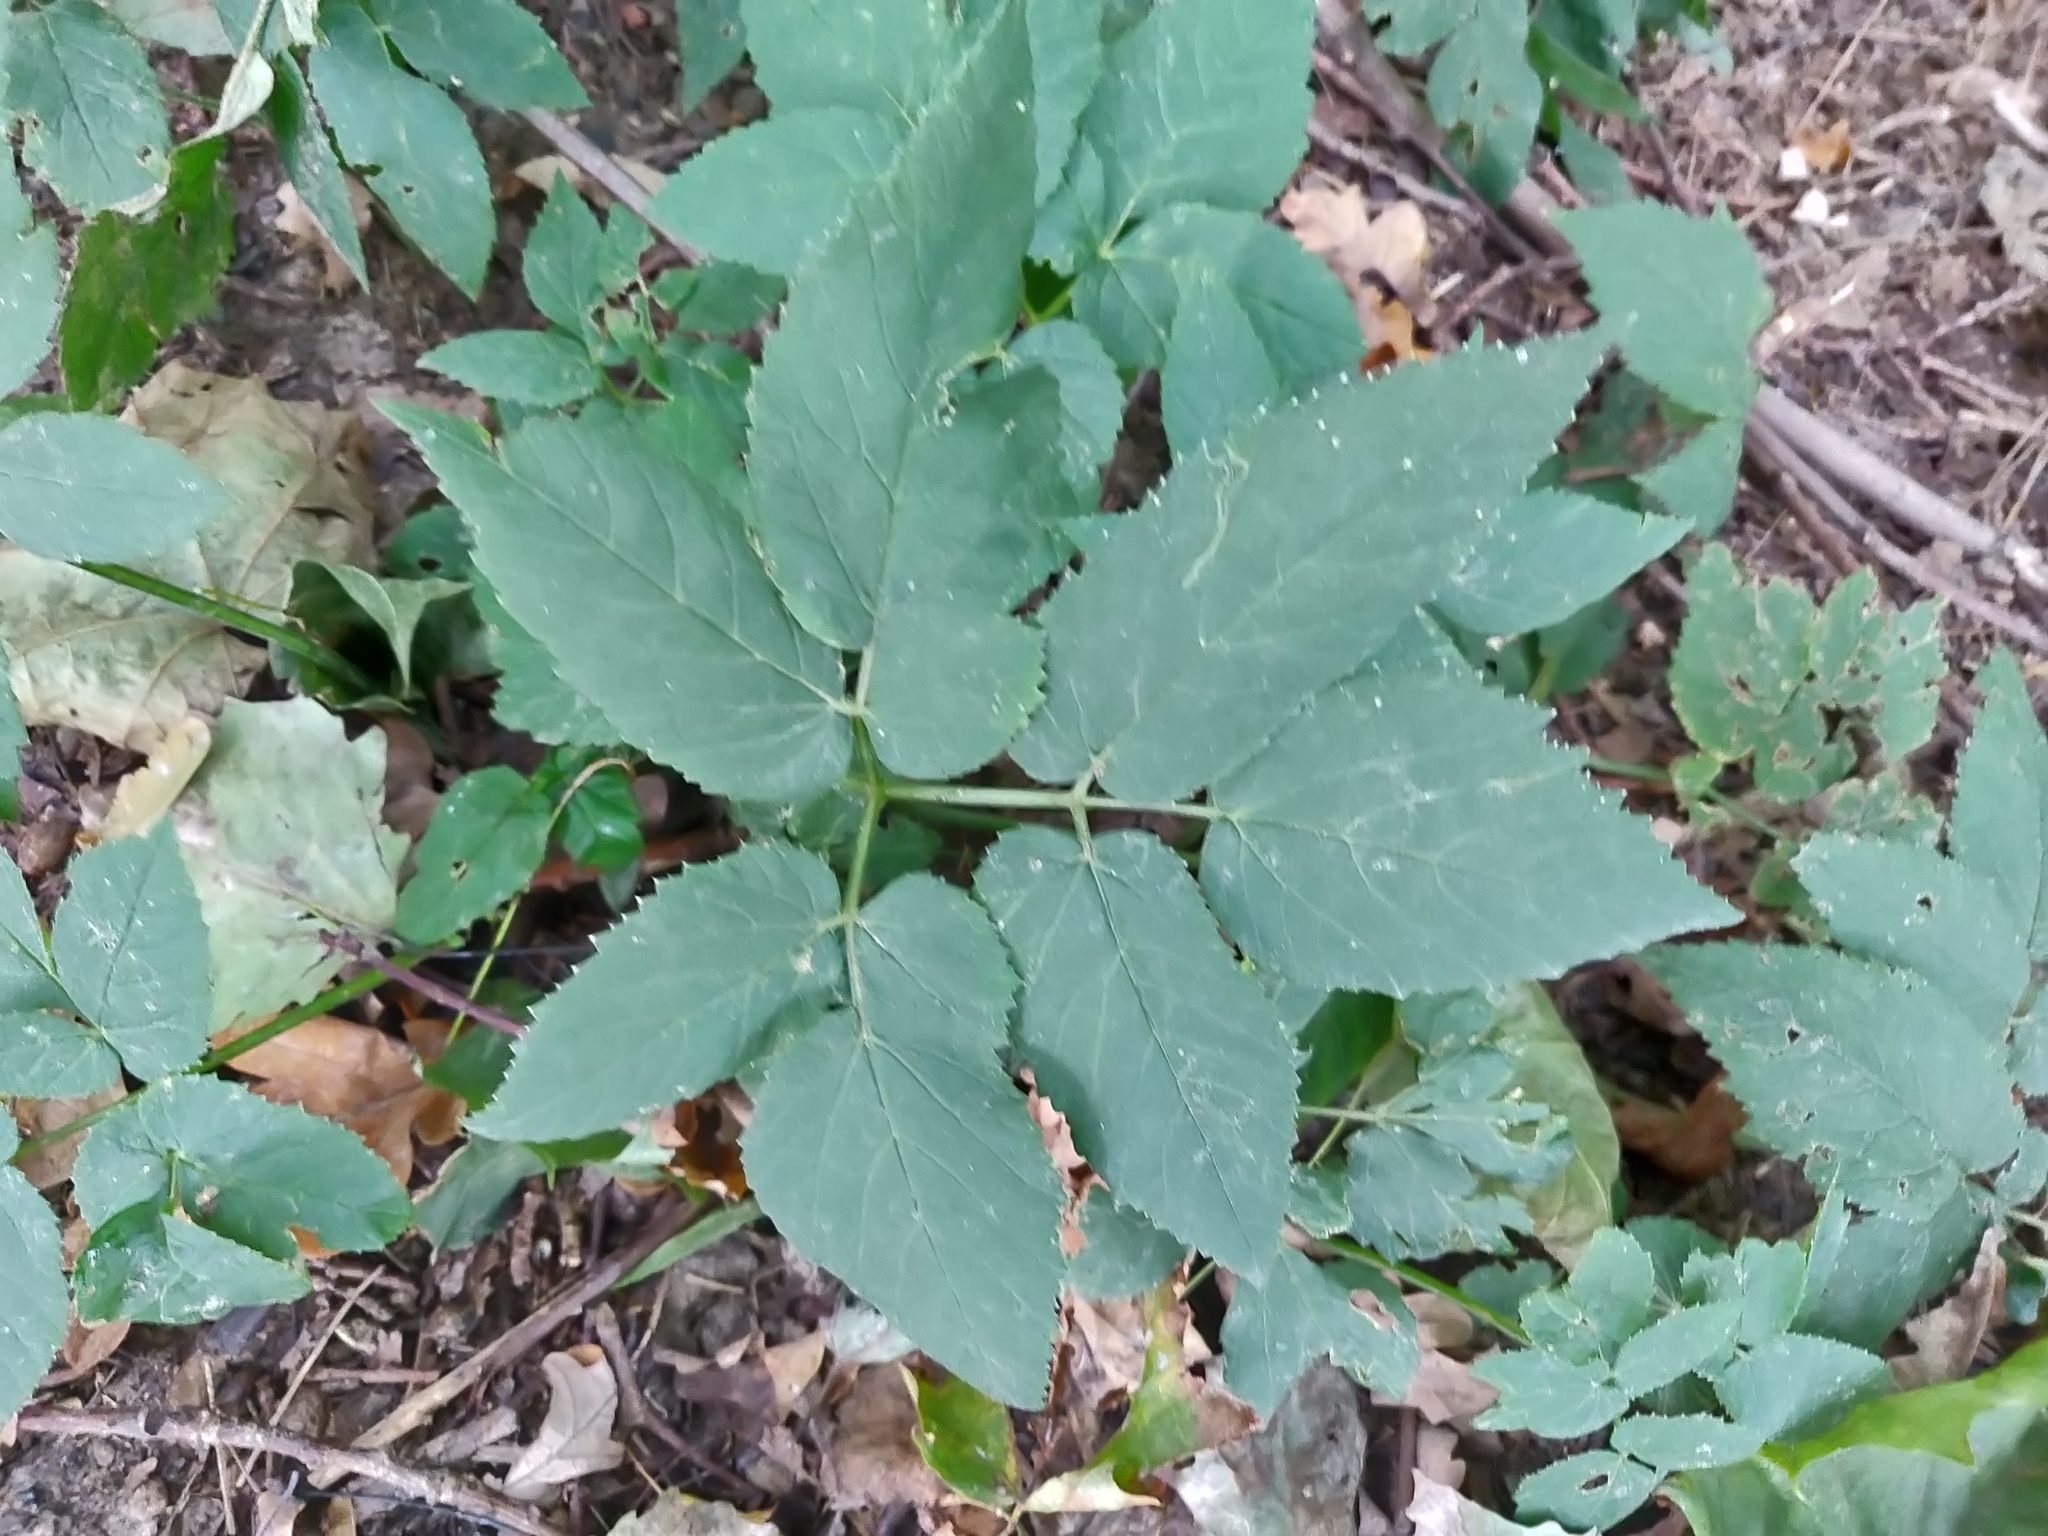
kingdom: Plantae
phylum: Tracheophyta
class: Magnoliopsida
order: Apiales
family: Apiaceae
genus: Aegopodium
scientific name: Aegopodium podagraria
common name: Ground-elder
